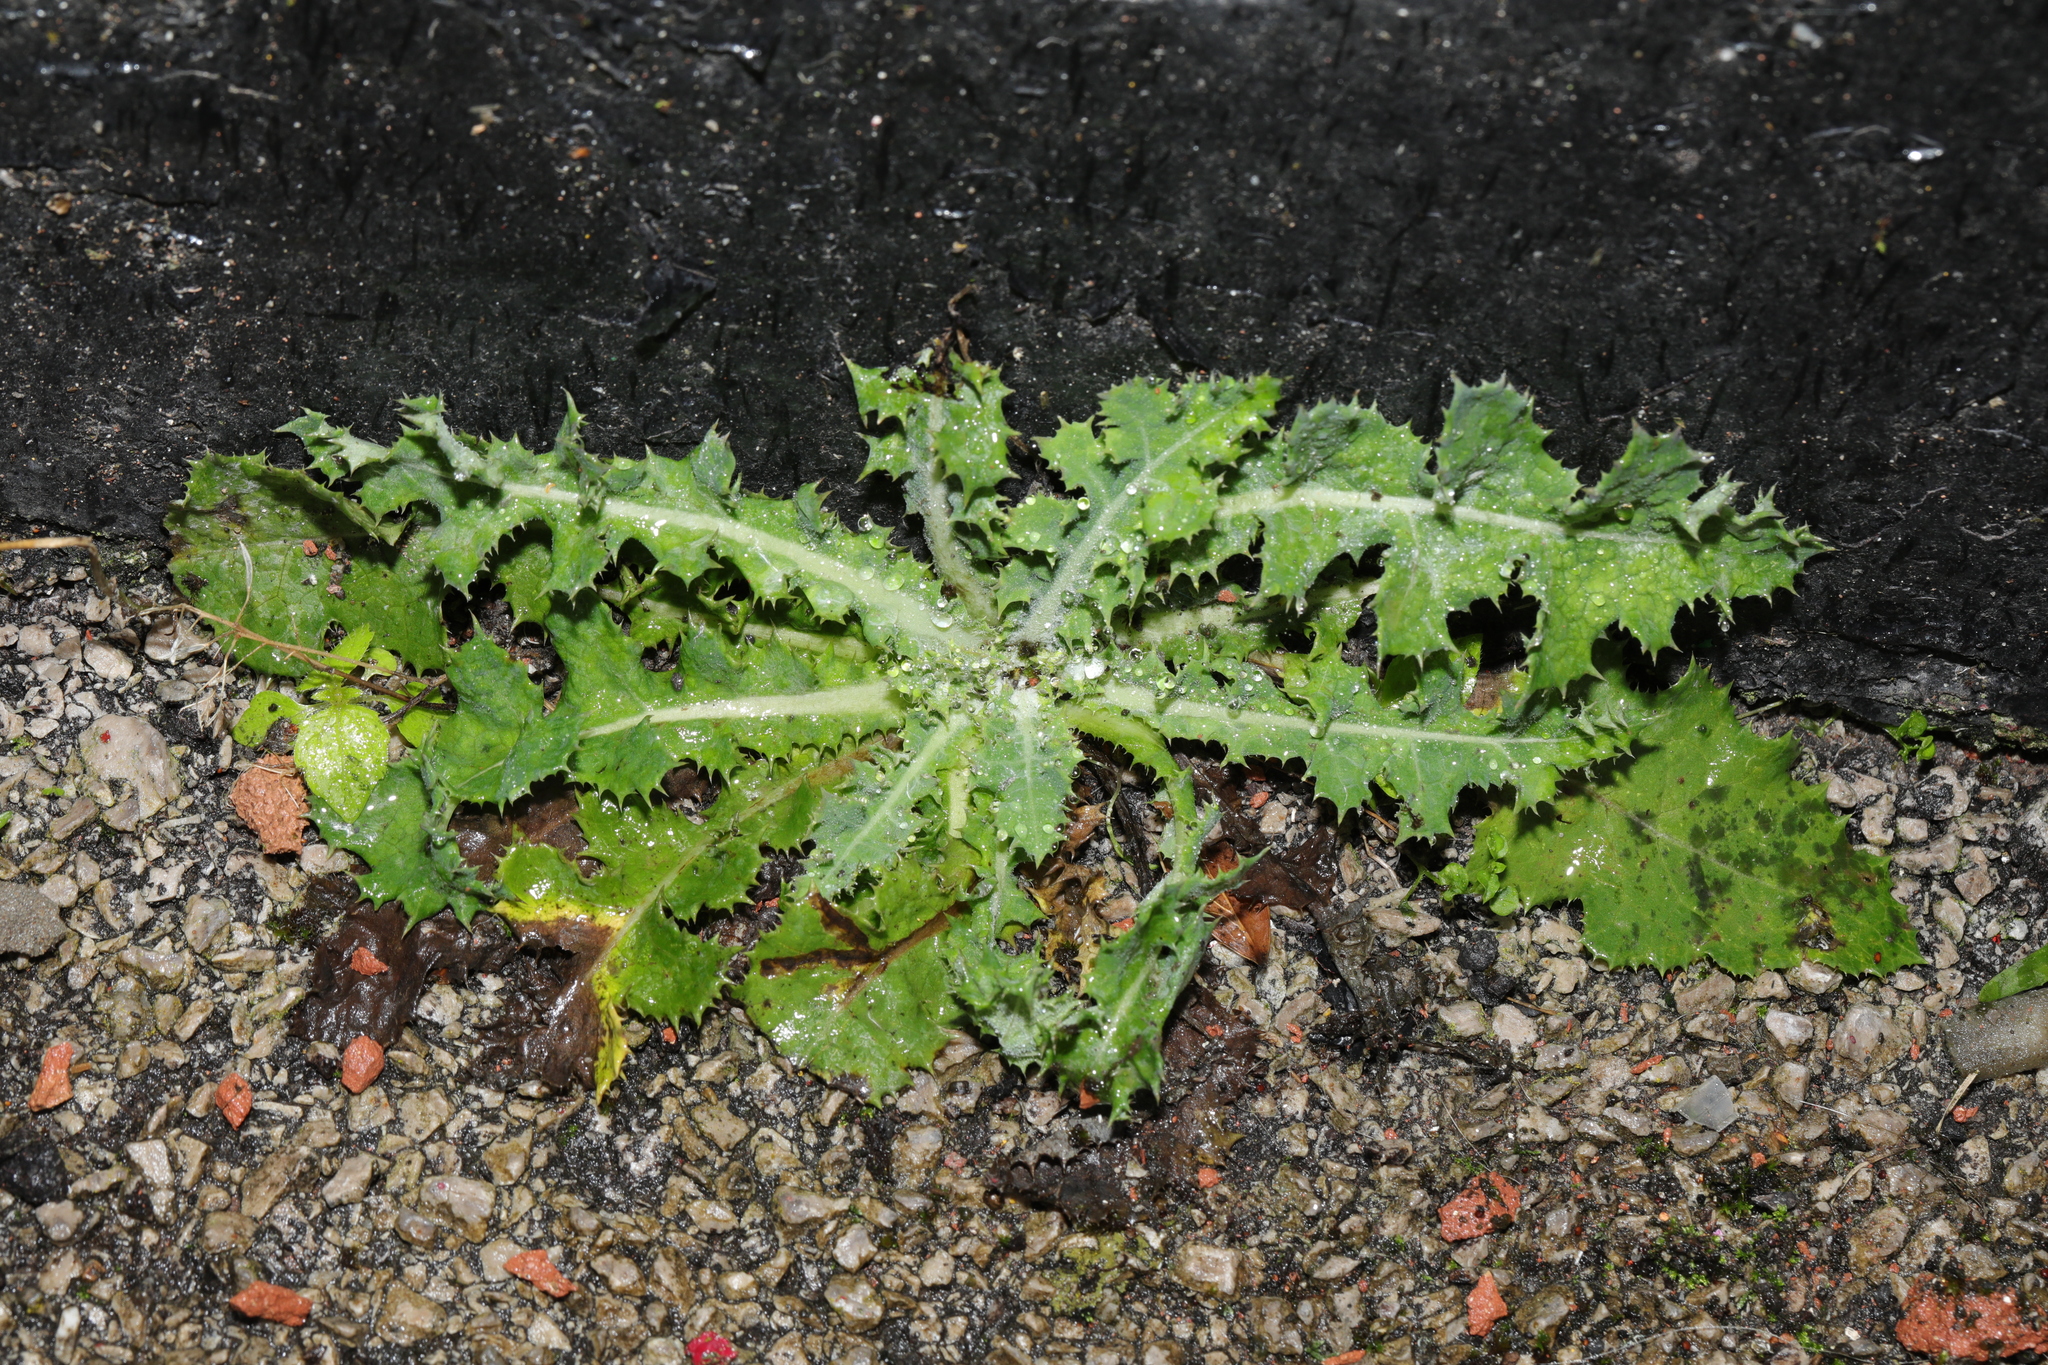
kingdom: Plantae
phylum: Tracheophyta
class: Magnoliopsida
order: Asterales
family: Asteraceae
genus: Sonchus
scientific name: Sonchus asper
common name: Prickly sow-thistle
